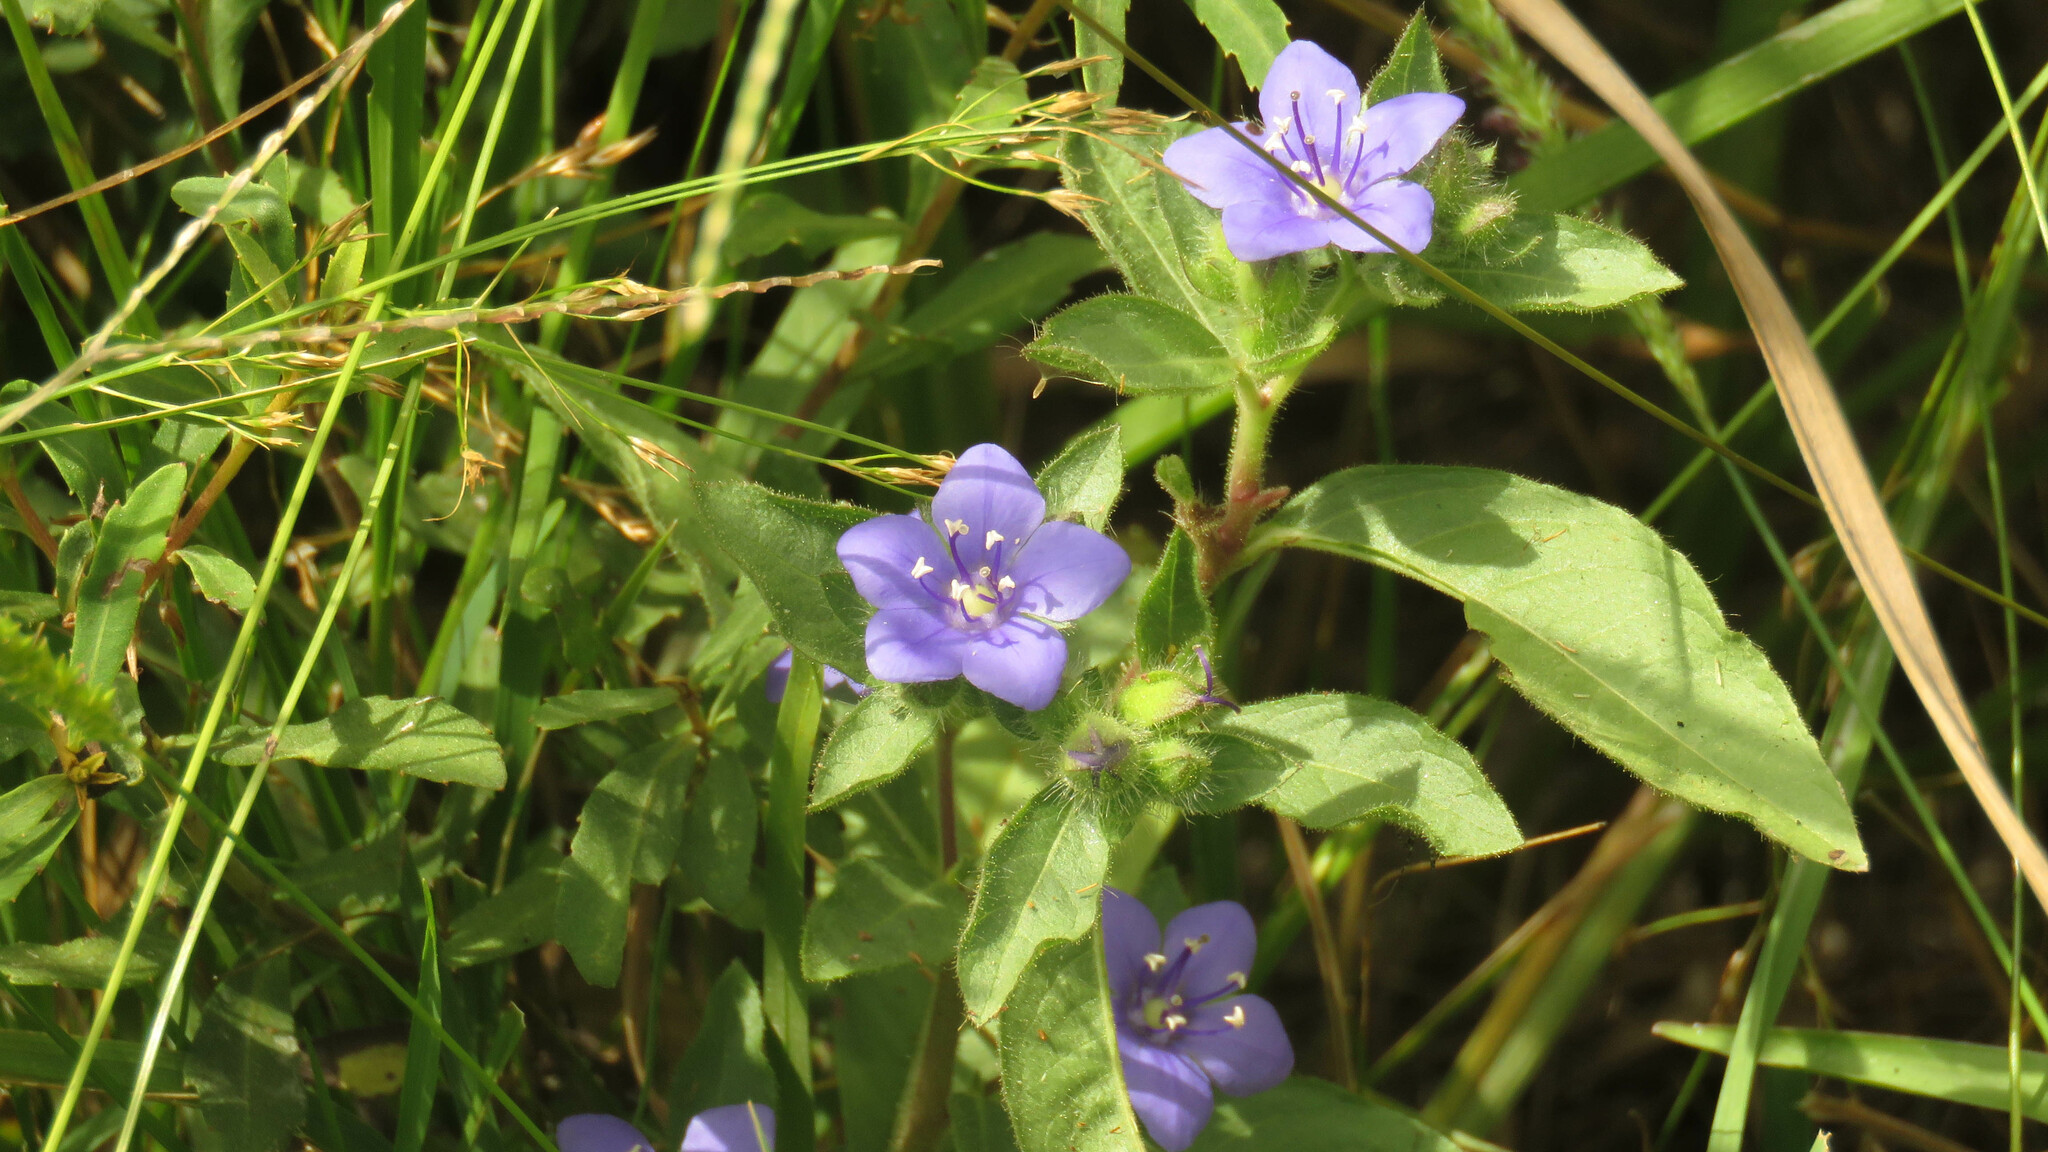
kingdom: Plantae
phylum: Tracheophyta
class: Magnoliopsida
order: Solanales
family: Hydroleaceae
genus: Hydrolea
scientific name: Hydrolea spinosa
